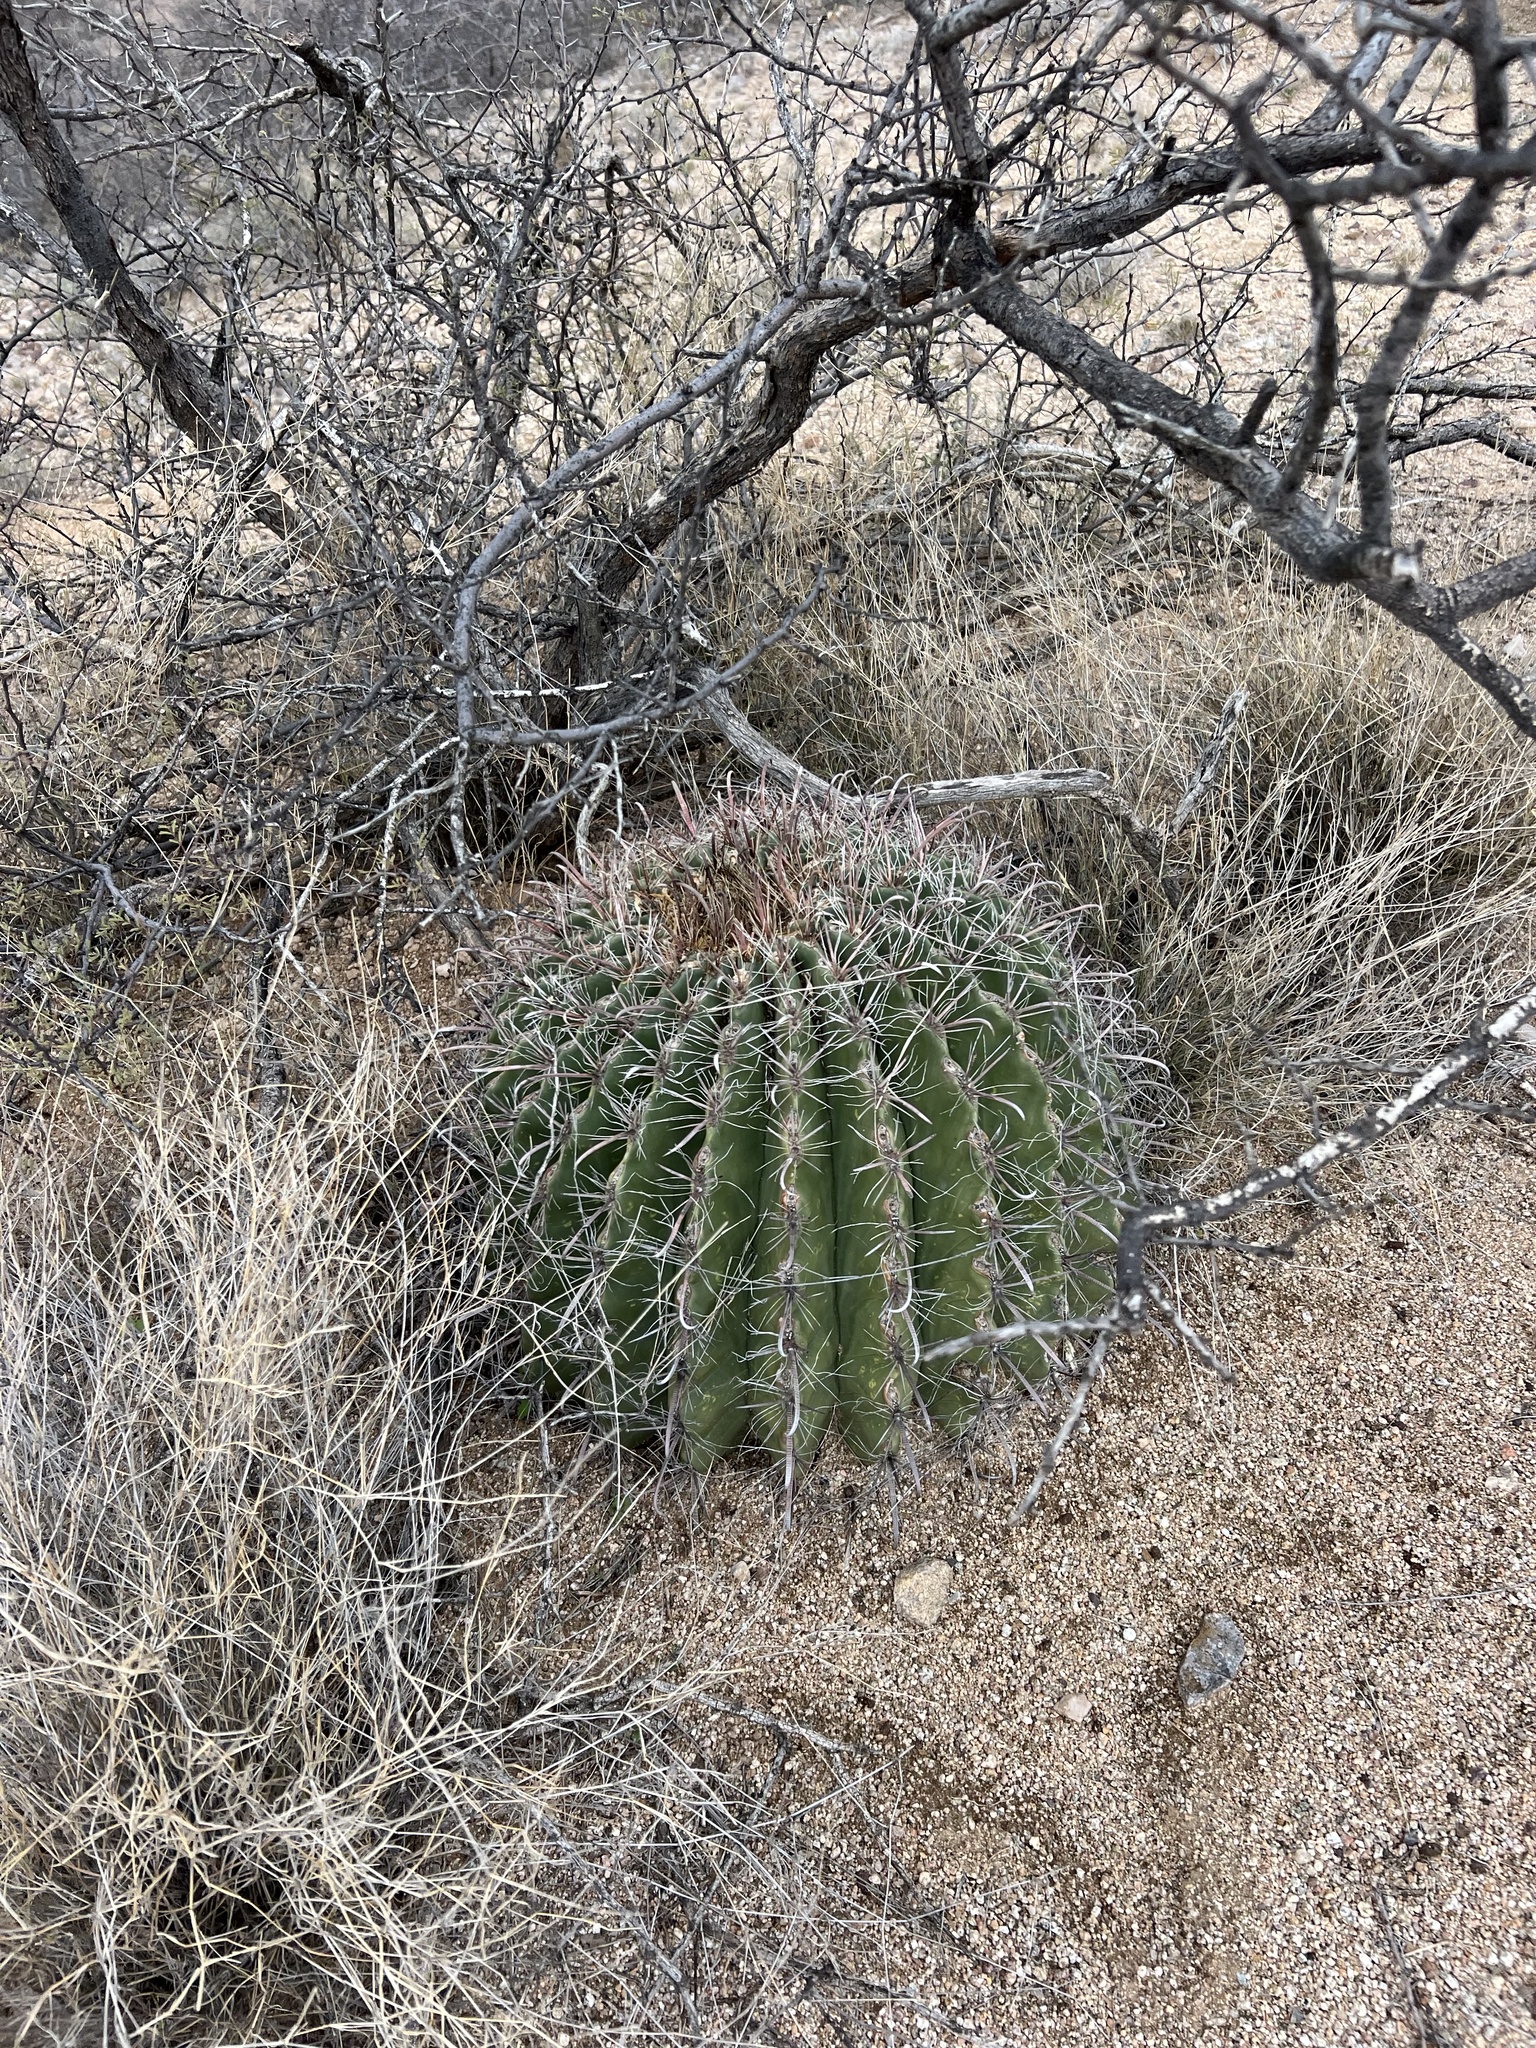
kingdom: Plantae
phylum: Tracheophyta
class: Magnoliopsida
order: Caryophyllales
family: Cactaceae
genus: Ferocactus
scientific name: Ferocactus wislizeni
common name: Candy barrel cactus
